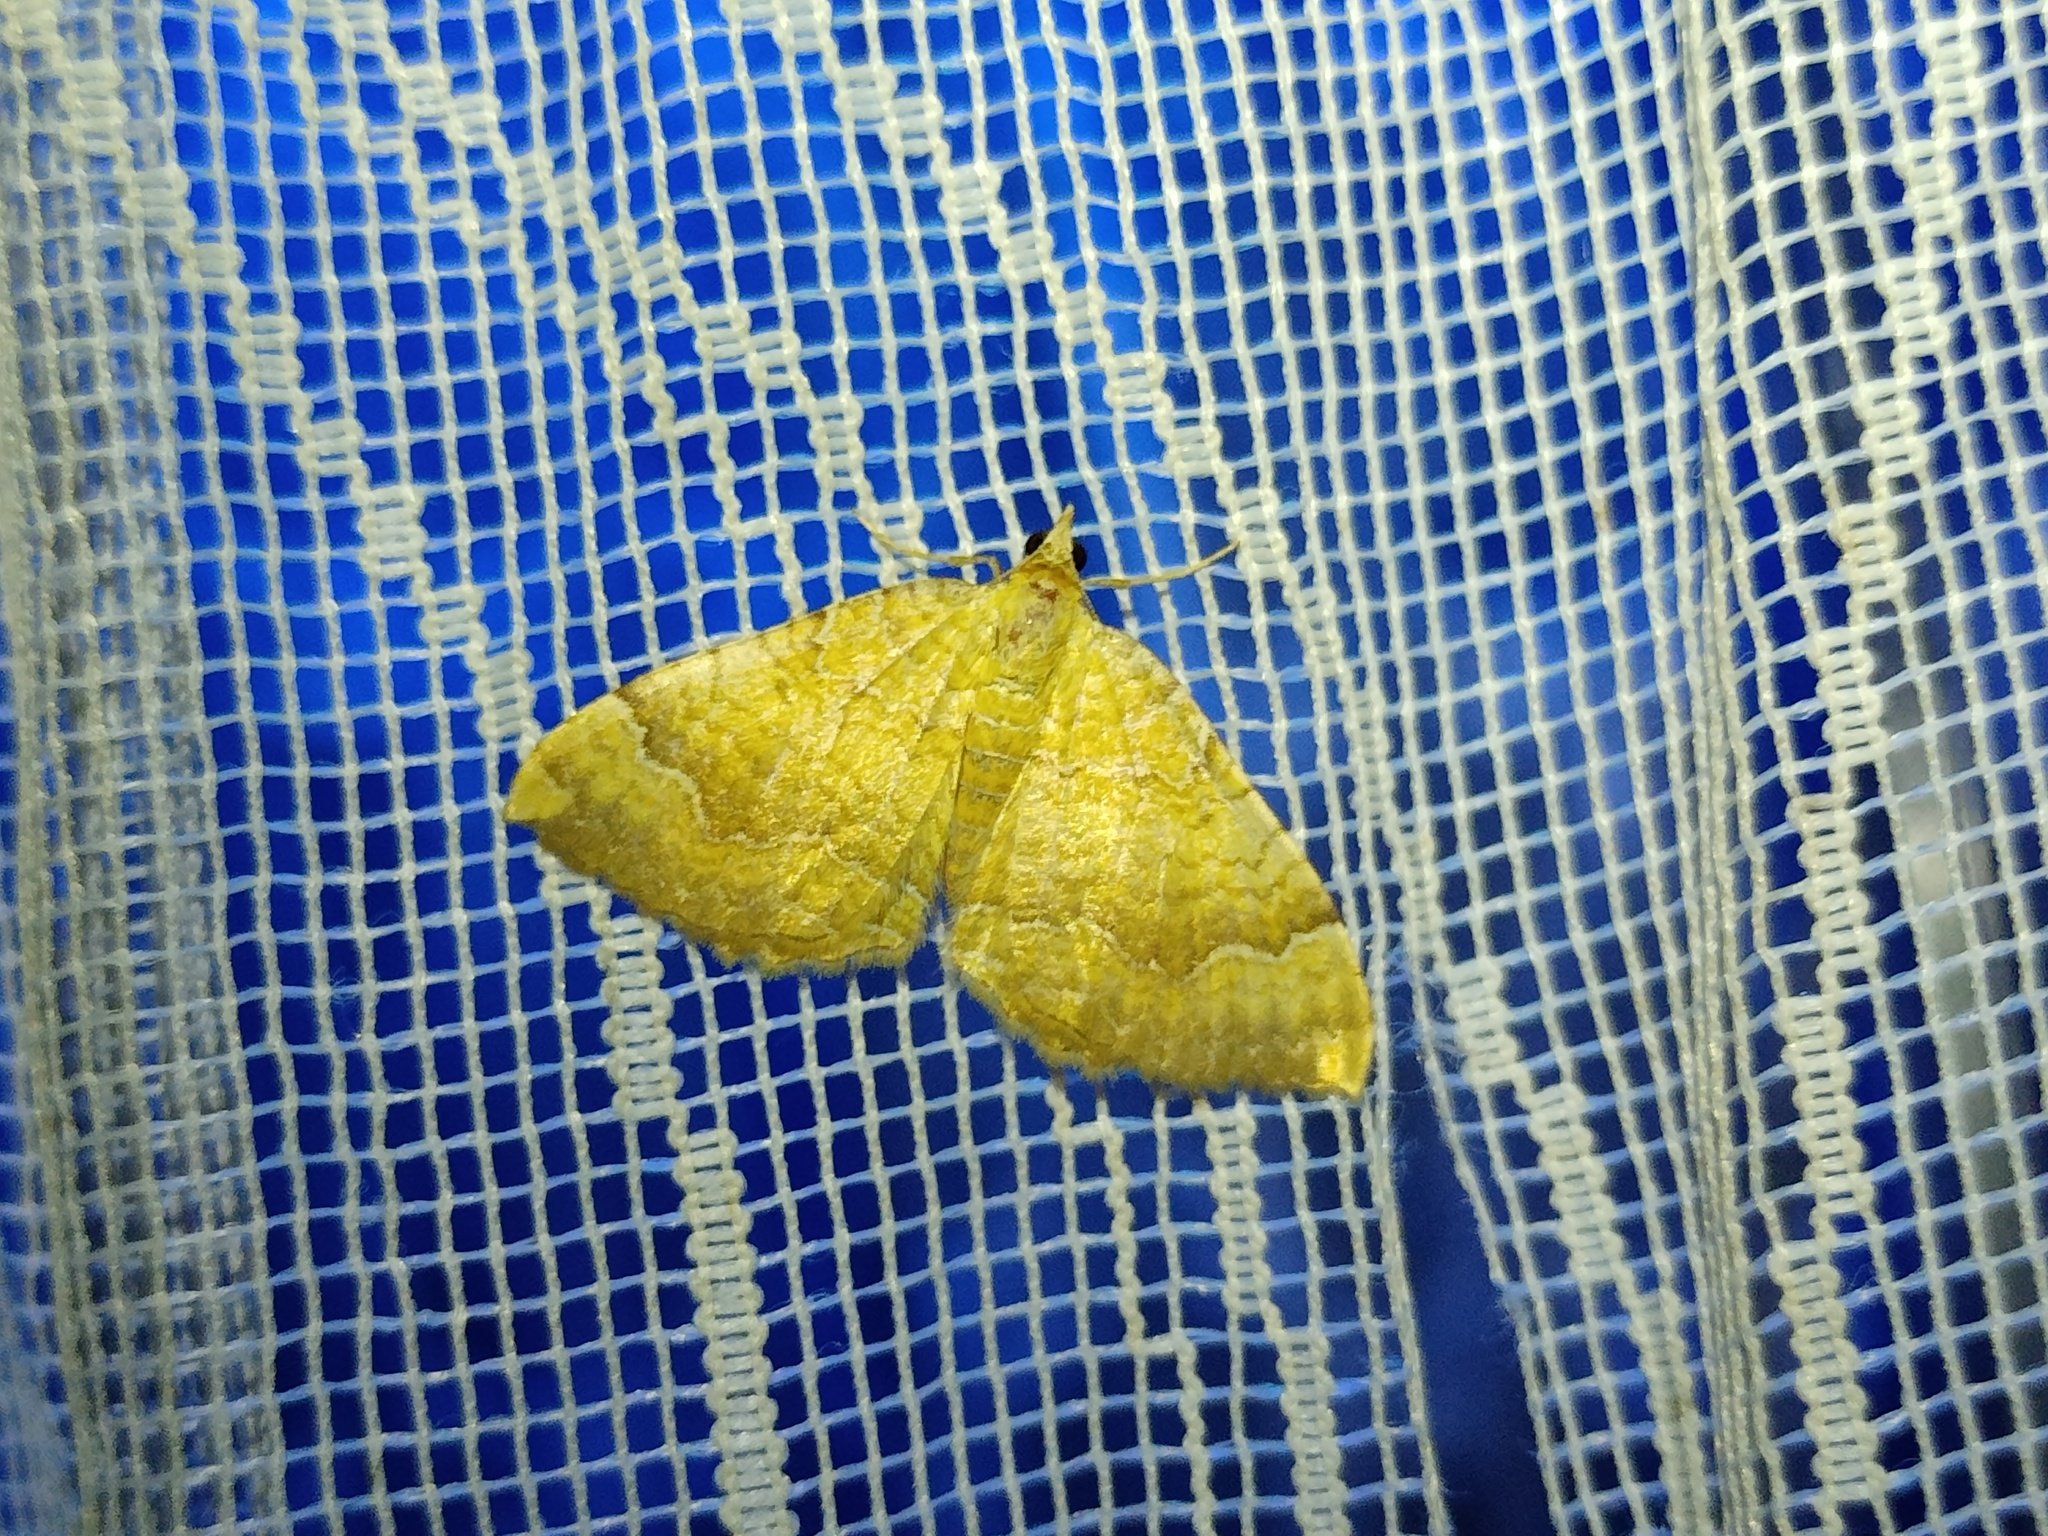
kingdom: Animalia
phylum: Arthropoda
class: Insecta
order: Lepidoptera
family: Geometridae
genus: Camptogramma
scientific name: Camptogramma bilineata
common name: Yellow shell
